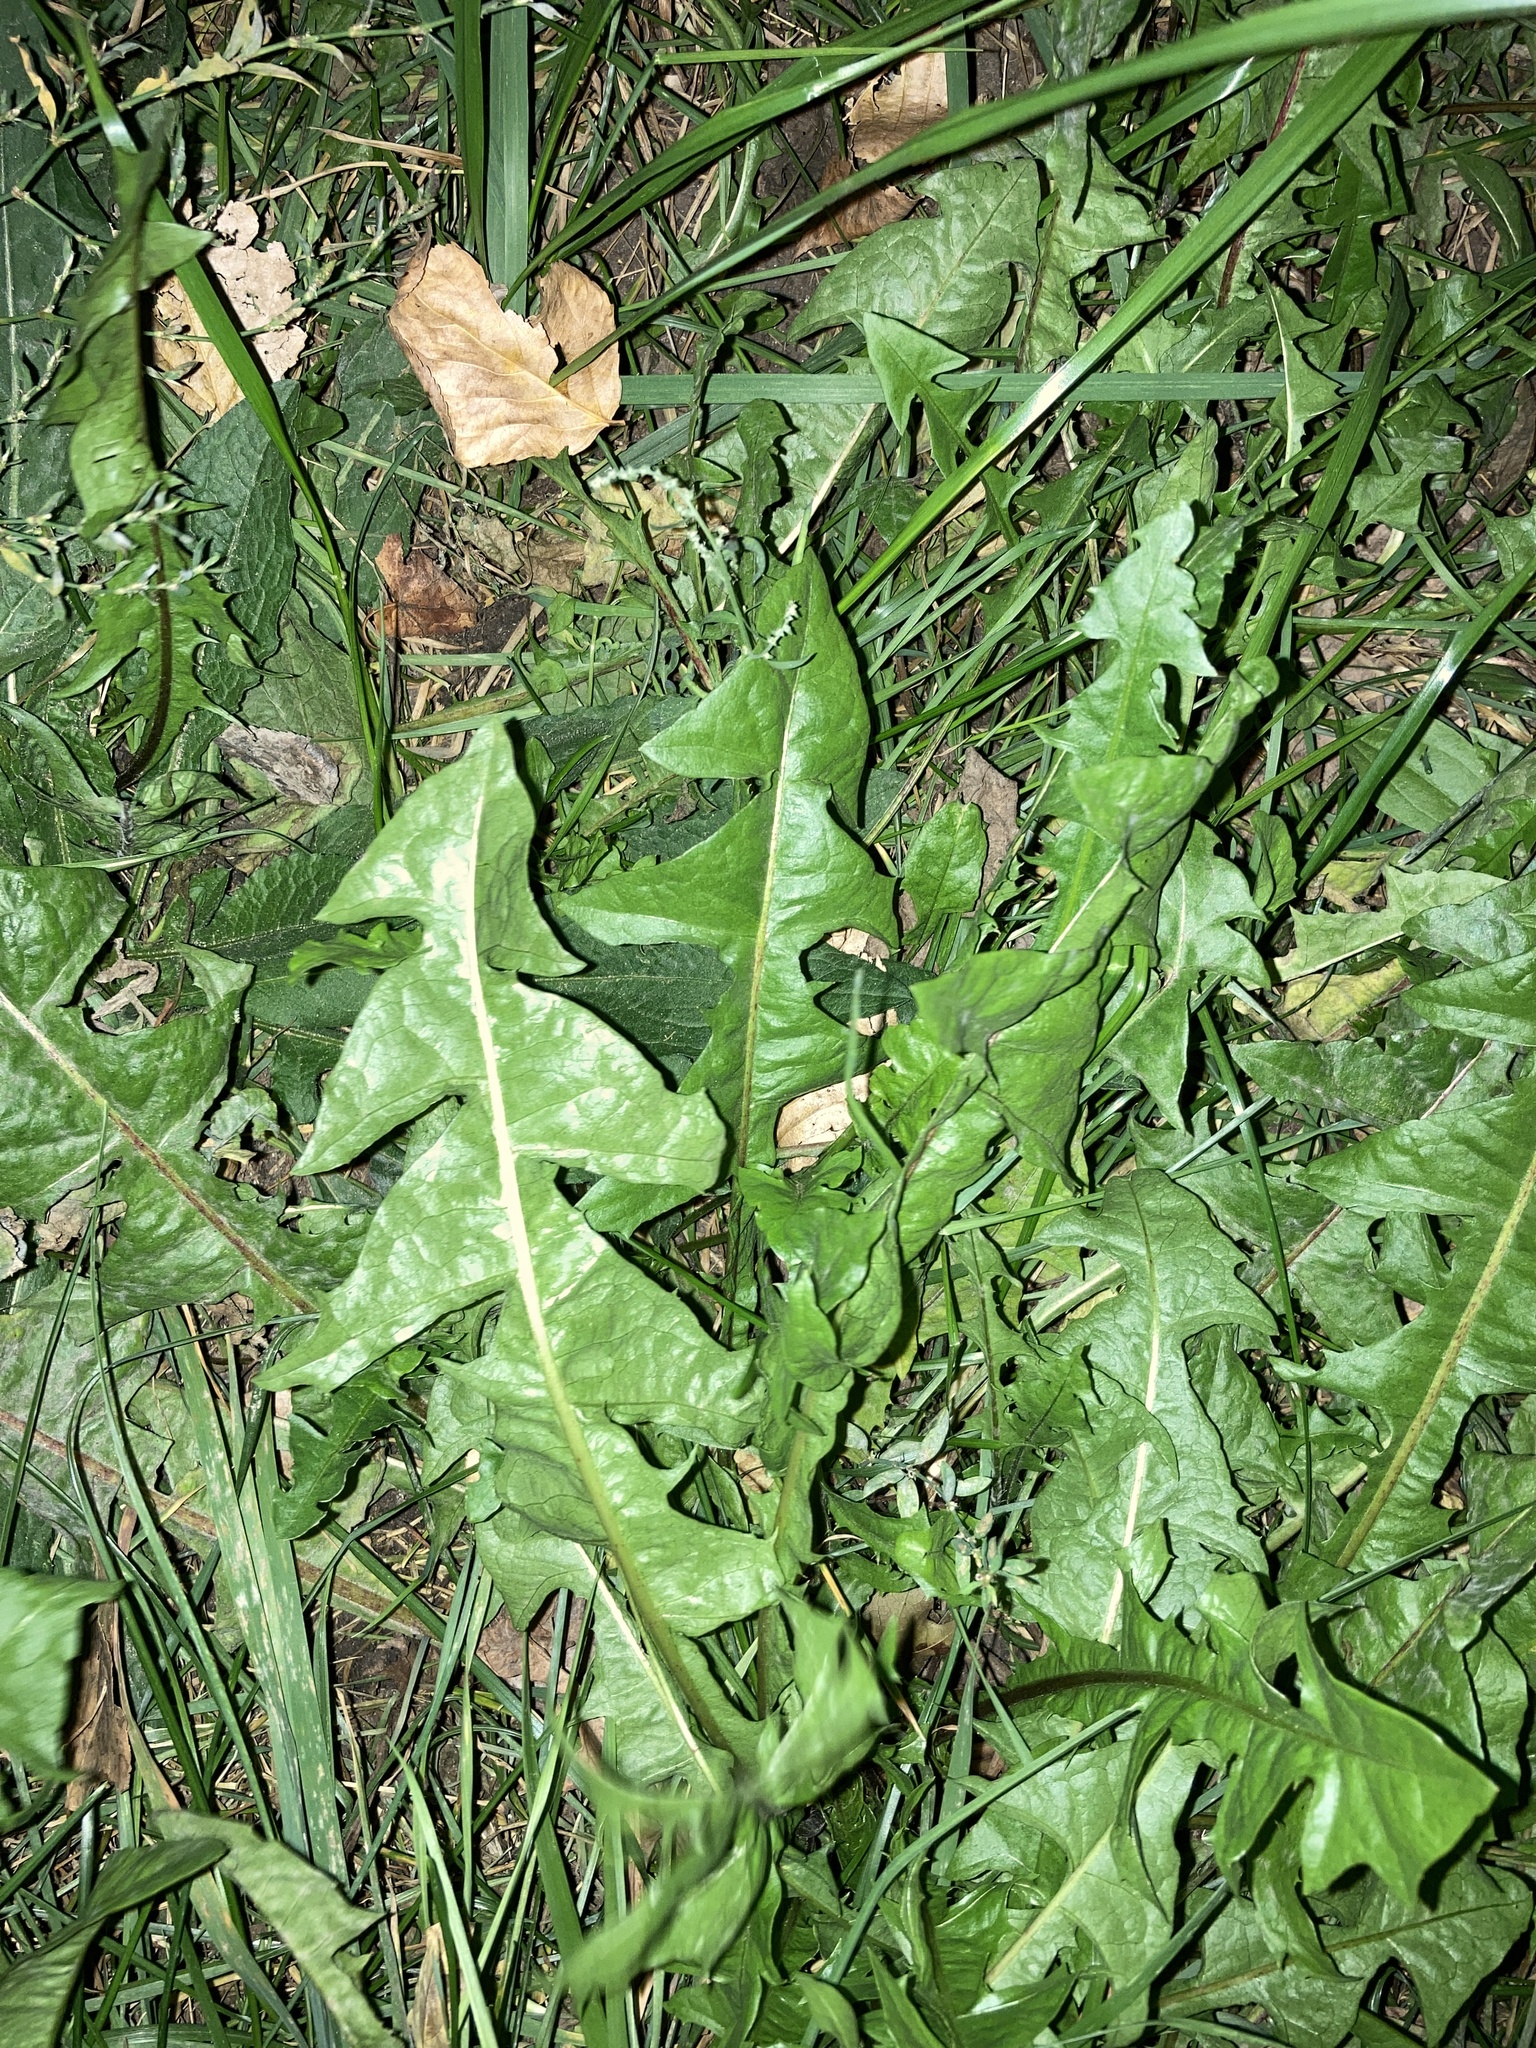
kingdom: Plantae
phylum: Tracheophyta
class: Magnoliopsida
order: Asterales
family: Asteraceae
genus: Taraxacum
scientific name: Taraxacum officinale
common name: Common dandelion
